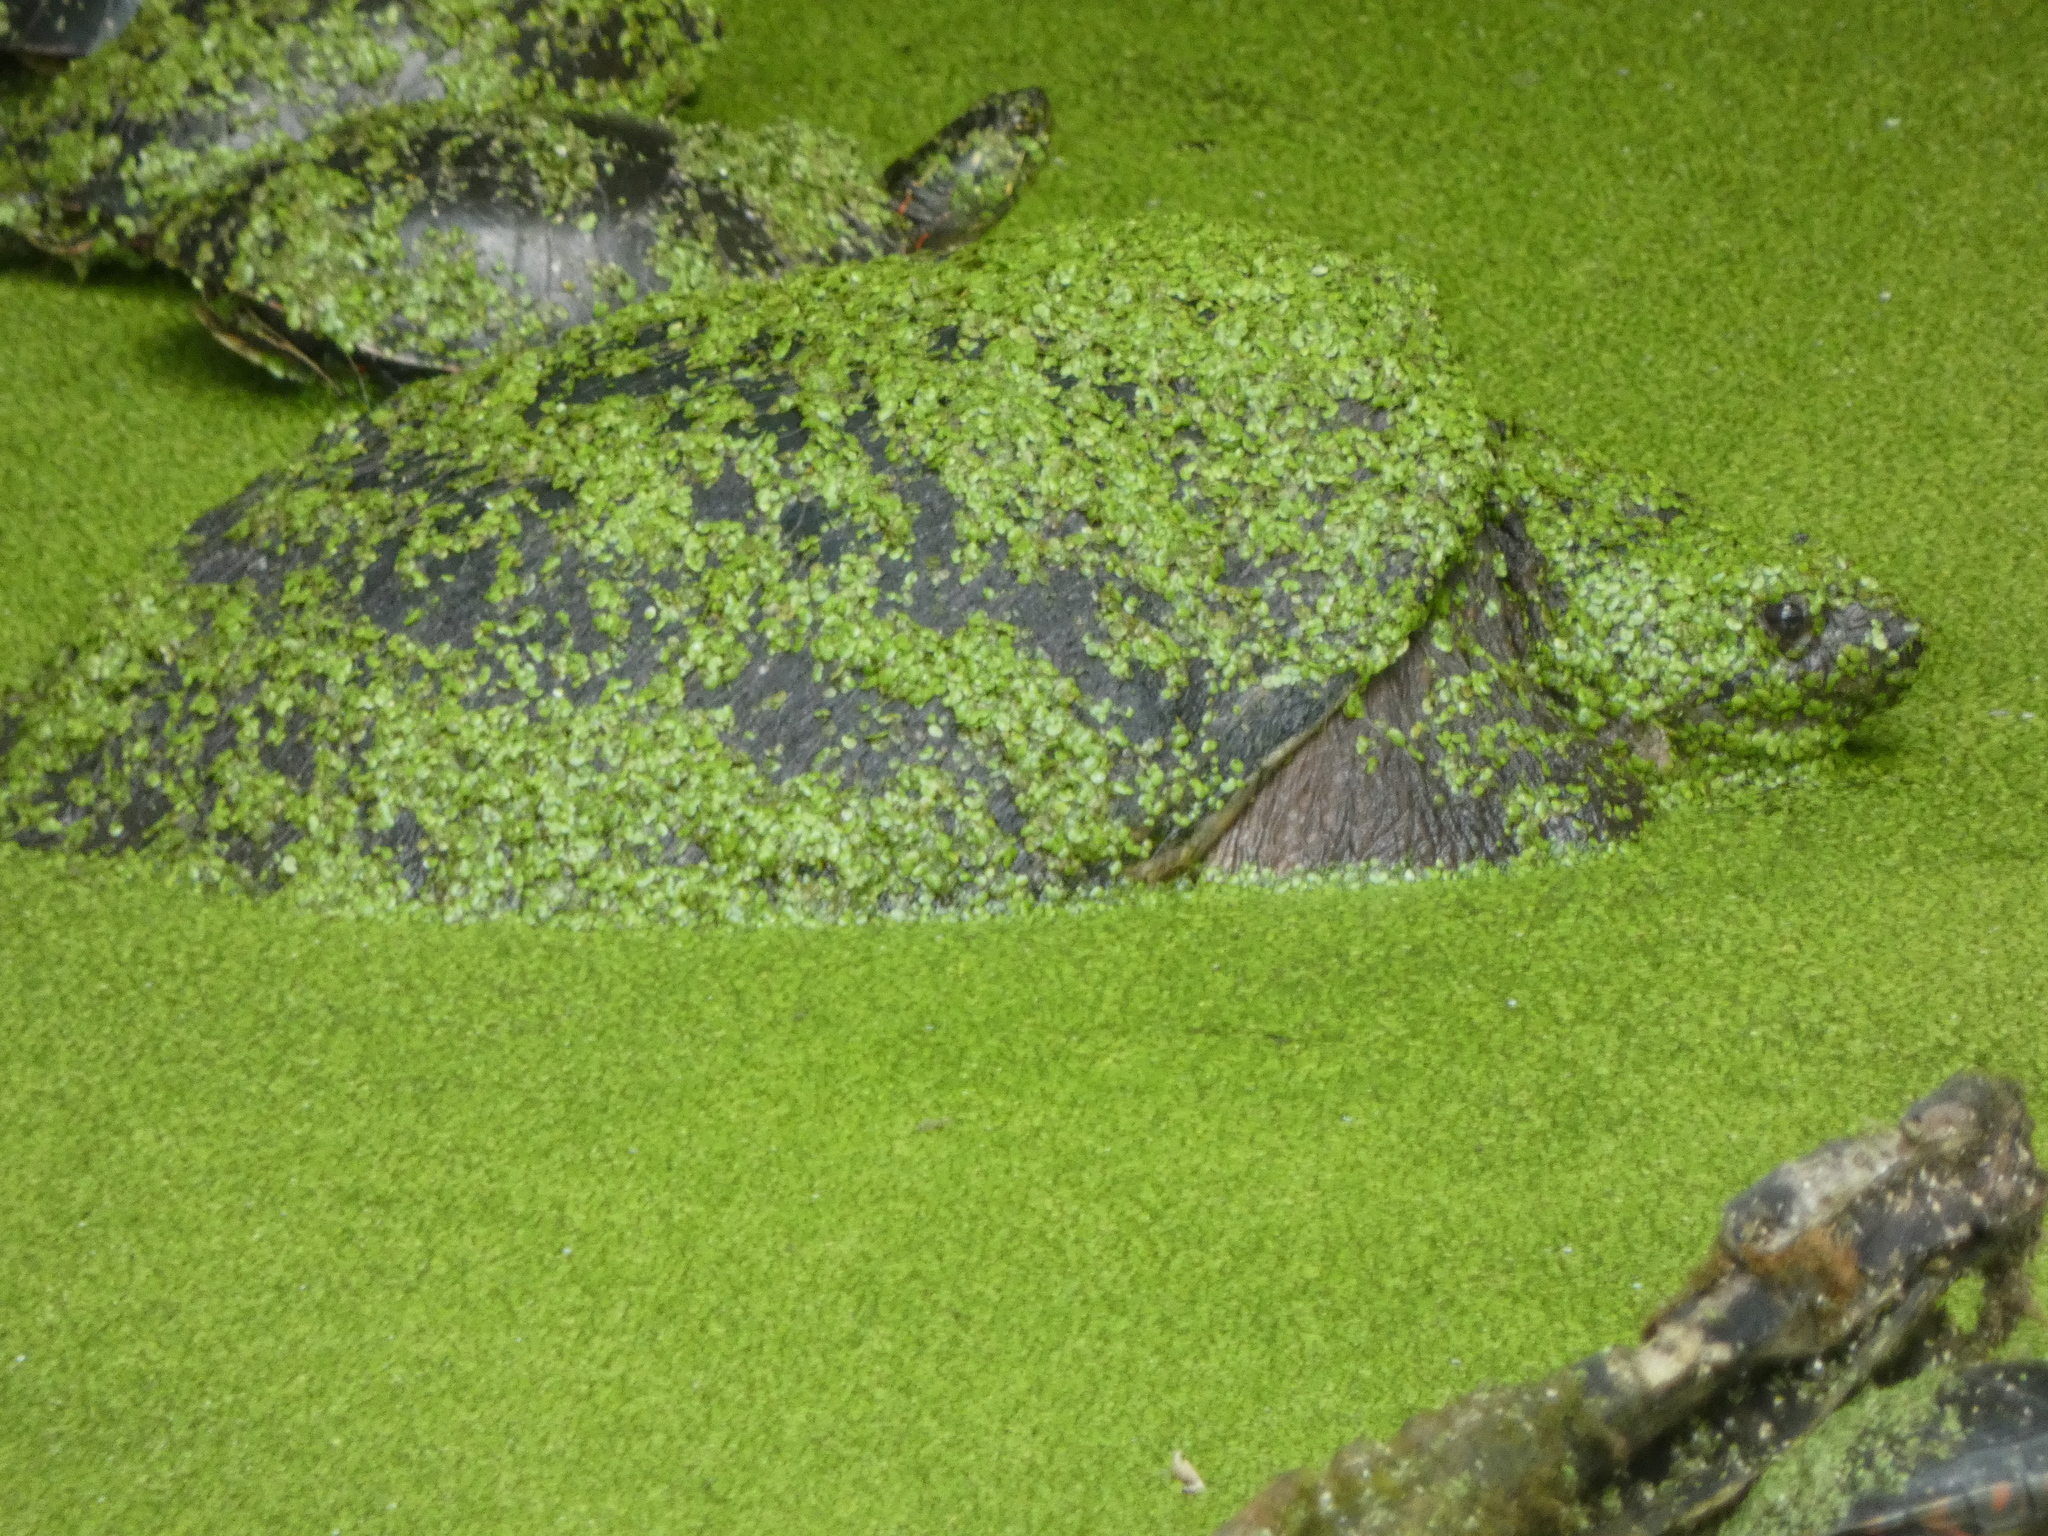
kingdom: Animalia
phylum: Chordata
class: Testudines
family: Chelydridae
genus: Chelydra
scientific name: Chelydra serpentina
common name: Common snapping turtle
